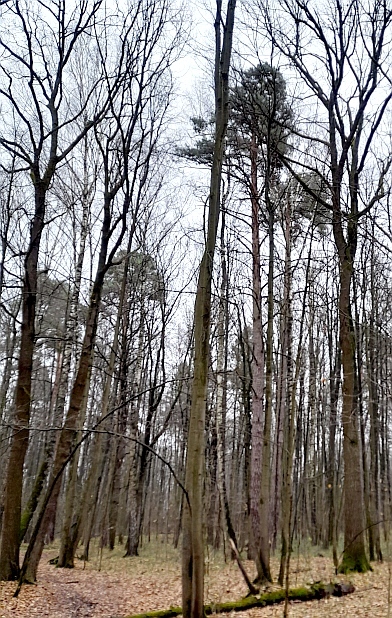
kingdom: Plantae
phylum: Tracheophyta
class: Pinopsida
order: Pinales
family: Pinaceae
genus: Pinus
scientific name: Pinus sylvestris
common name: Scots pine
